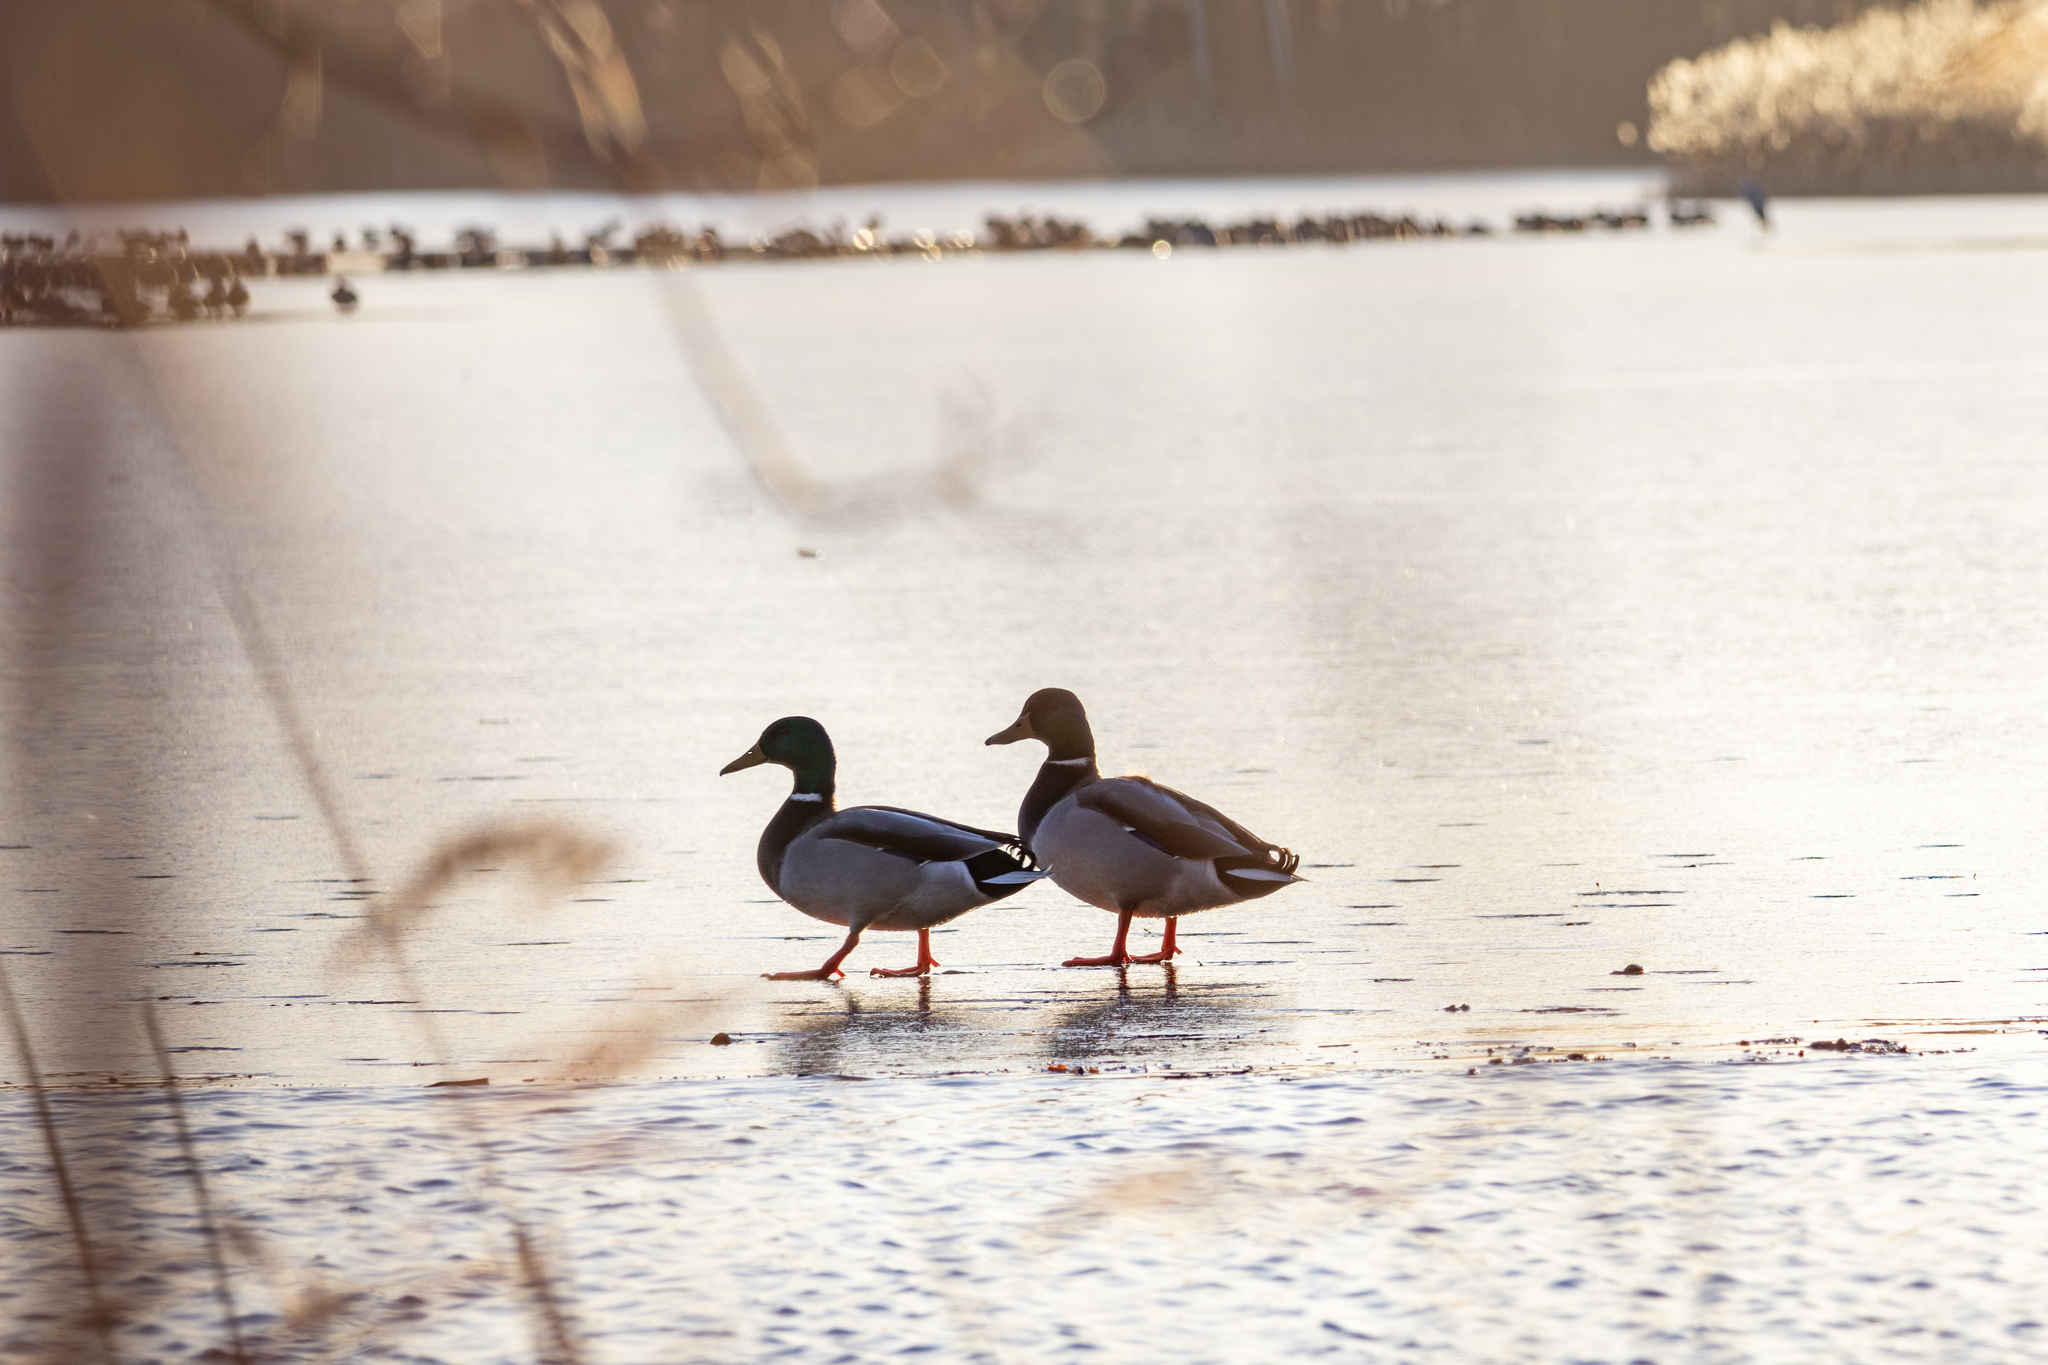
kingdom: Animalia
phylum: Chordata
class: Aves
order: Anseriformes
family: Anatidae
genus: Anas
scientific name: Anas platyrhynchos
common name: Mallard
